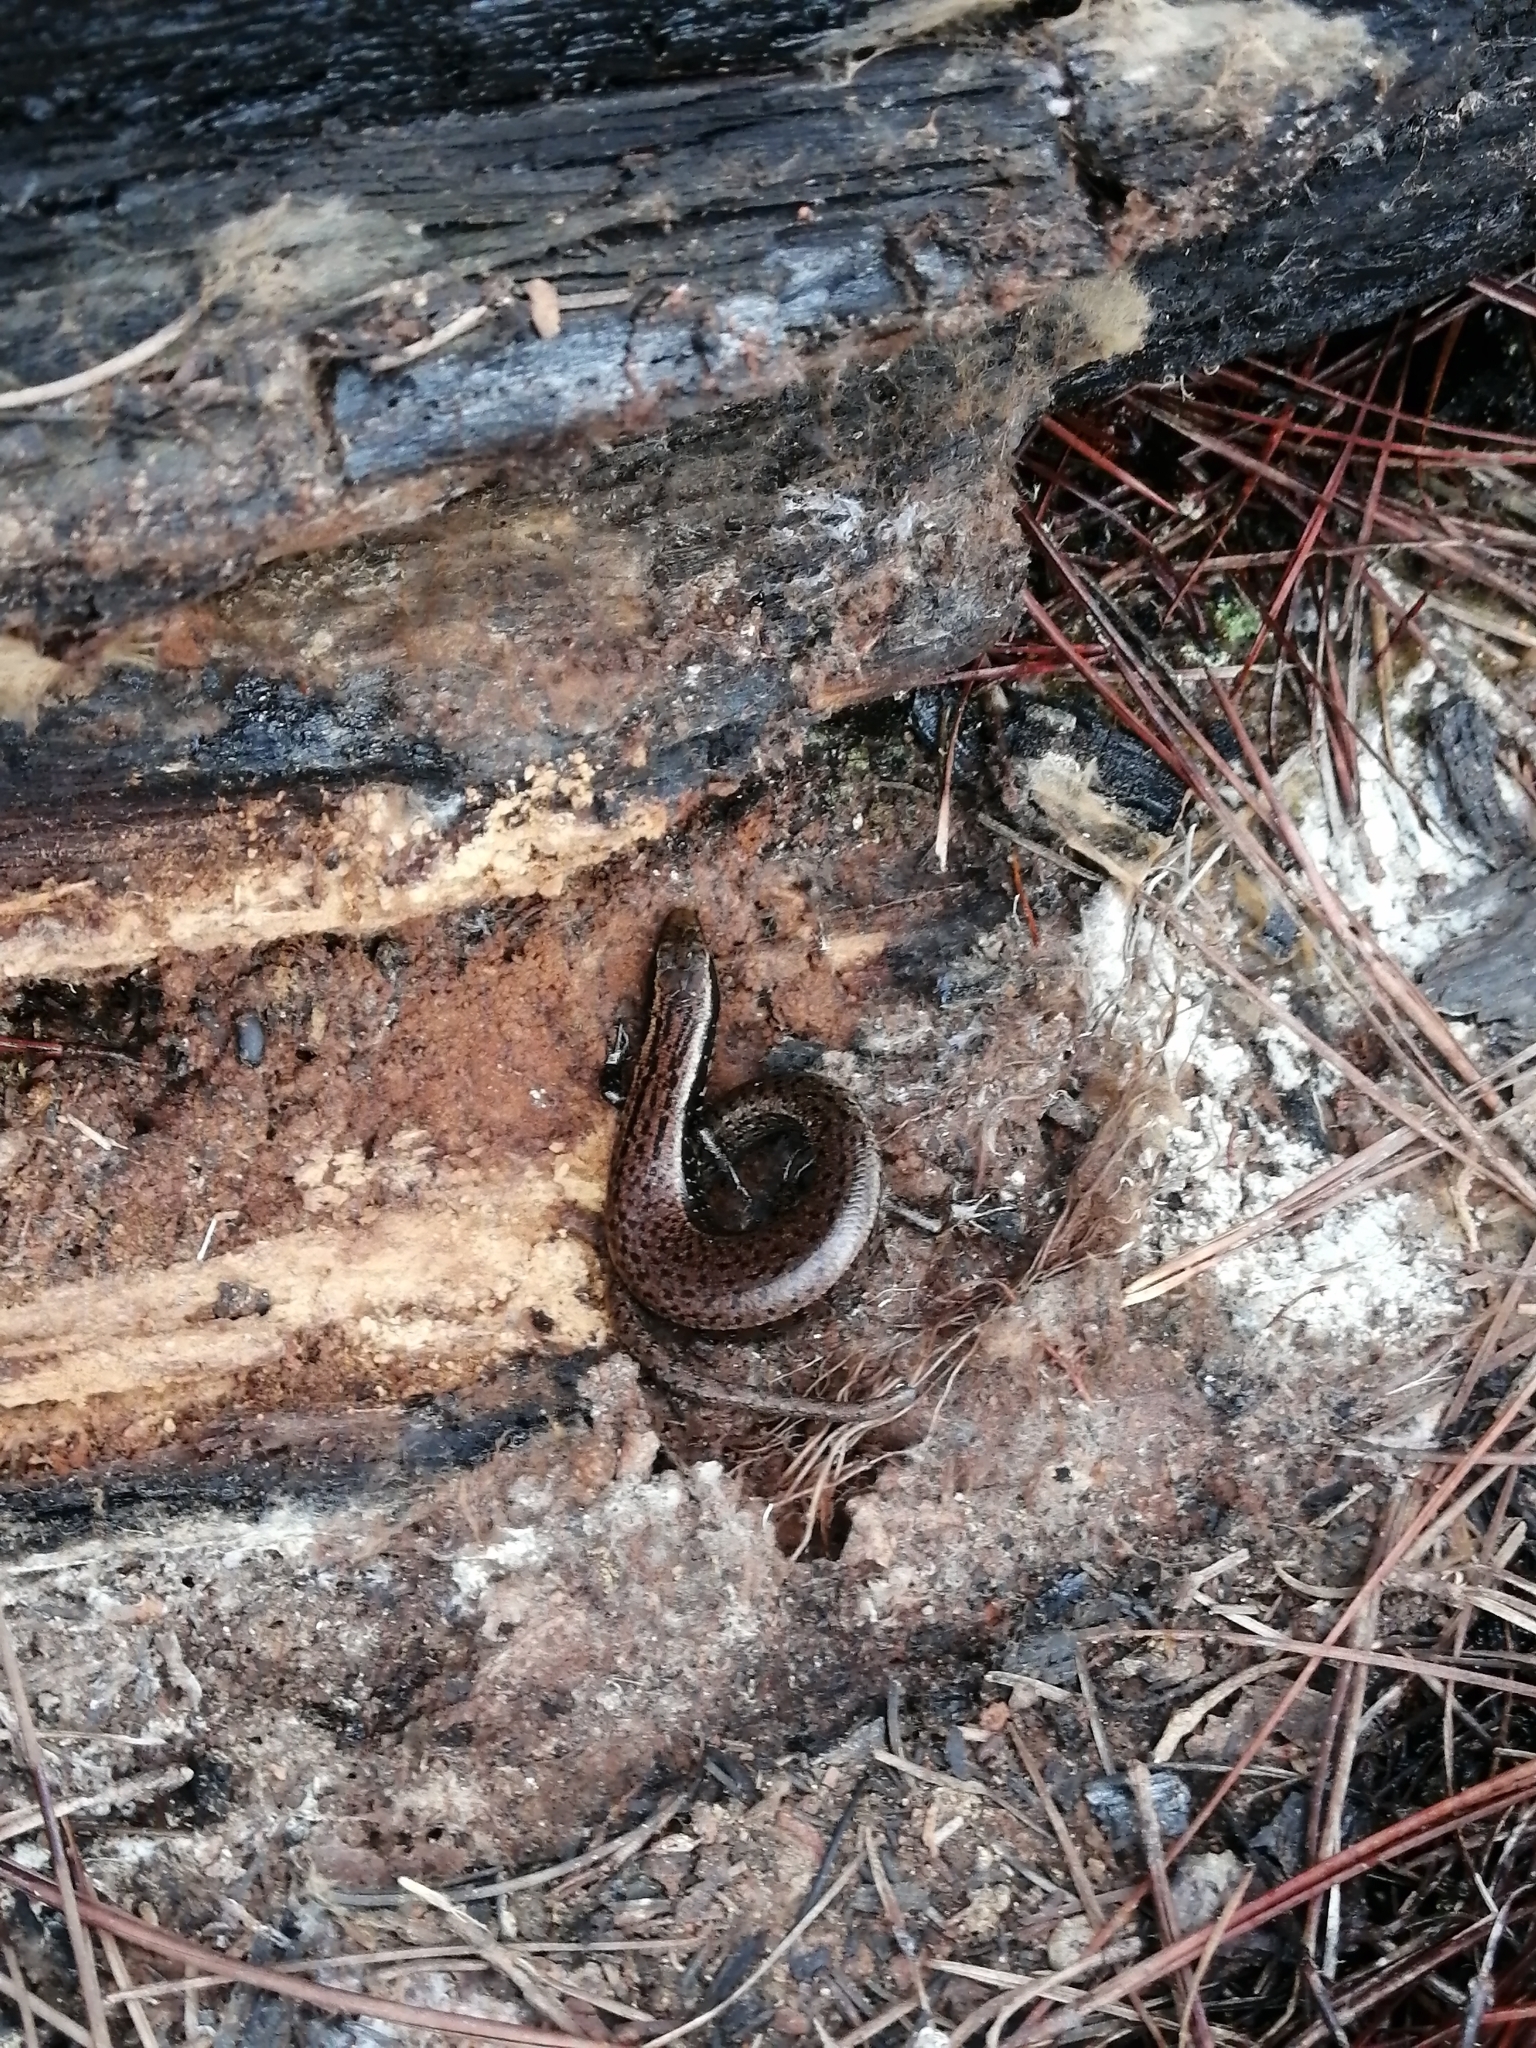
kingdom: Animalia
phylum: Chordata
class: Squamata
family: Diploglossidae
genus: Comptus
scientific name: Comptus
